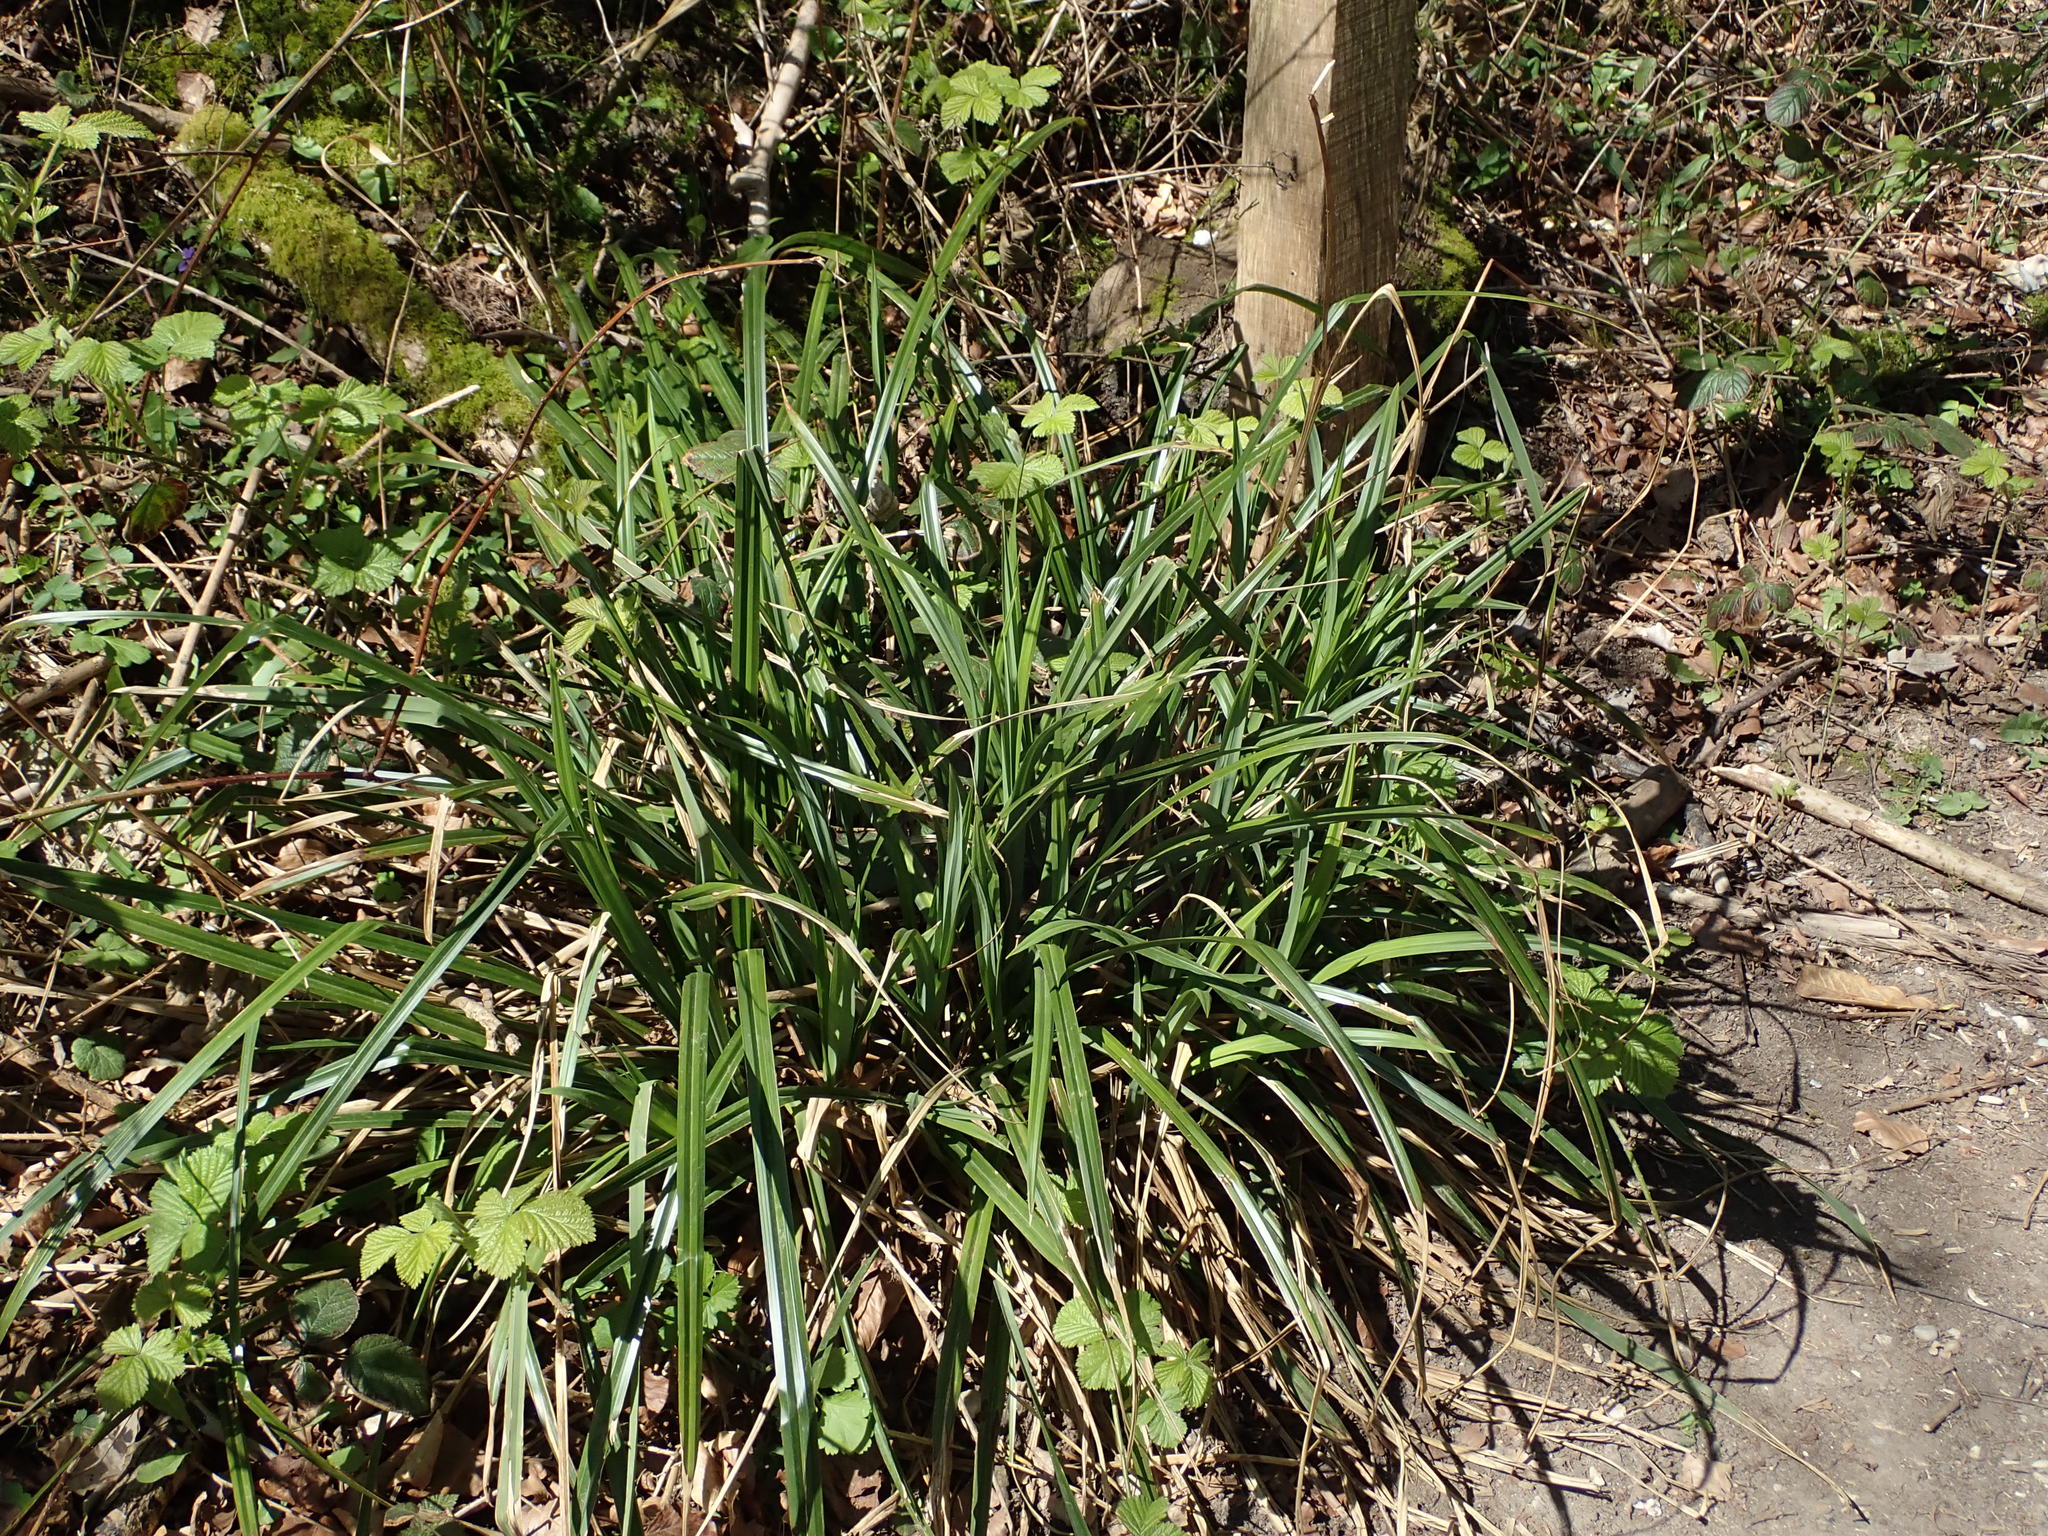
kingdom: Plantae
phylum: Tracheophyta
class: Liliopsida
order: Poales
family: Cyperaceae
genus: Carex
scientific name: Carex pendula
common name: Pendulous sedge
